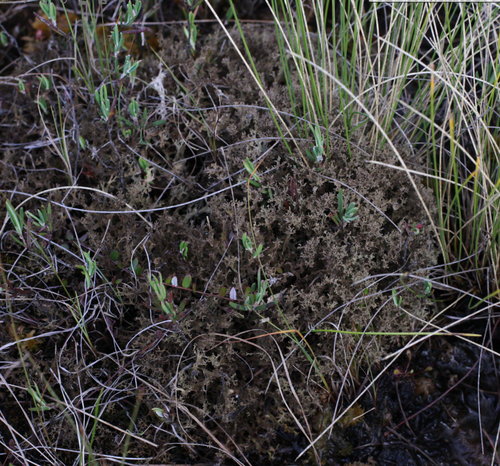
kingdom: Fungi
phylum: Ascomycota
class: Lecanoromycetes
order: Lecanorales
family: Parmeliaceae
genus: Cetrariella
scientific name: Cetrariella delisei
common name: Snow-bed iceland lichen
